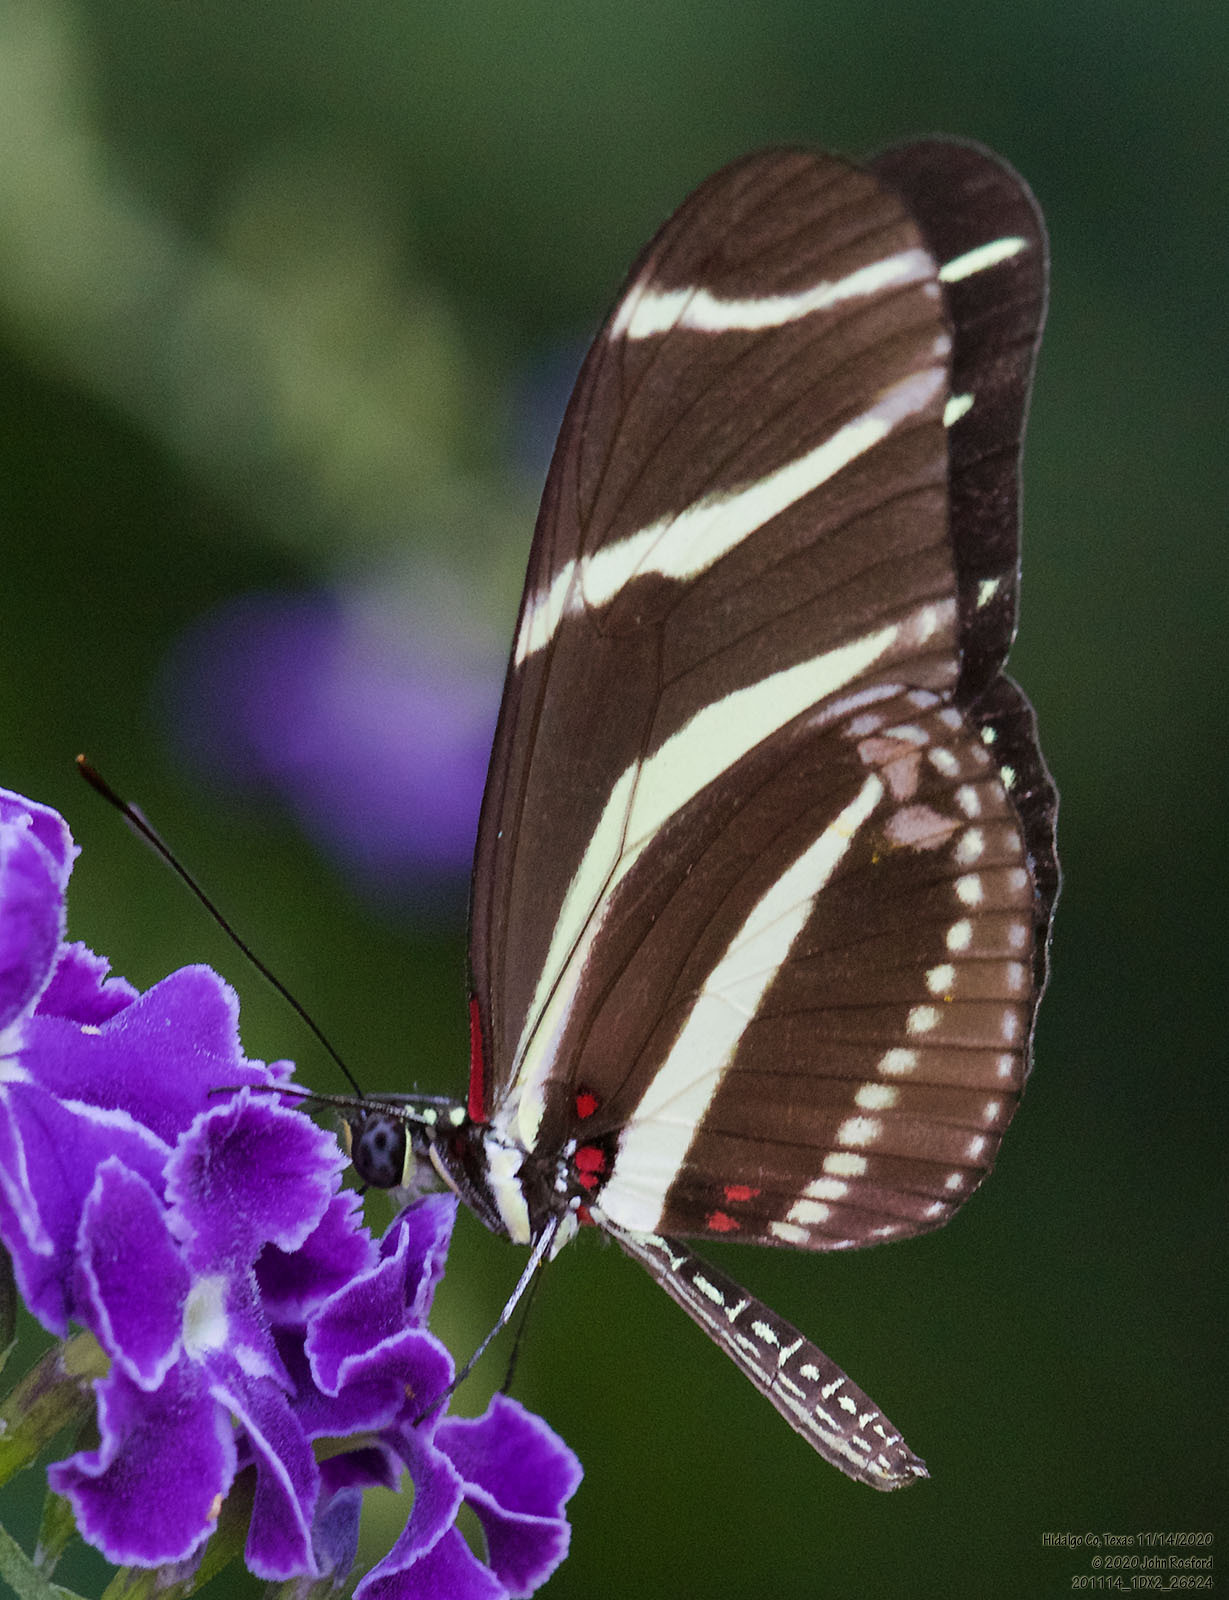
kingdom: Animalia
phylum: Arthropoda
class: Insecta
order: Lepidoptera
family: Nymphalidae
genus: Heliconius
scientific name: Heliconius charithonia
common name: Zebra long wing
